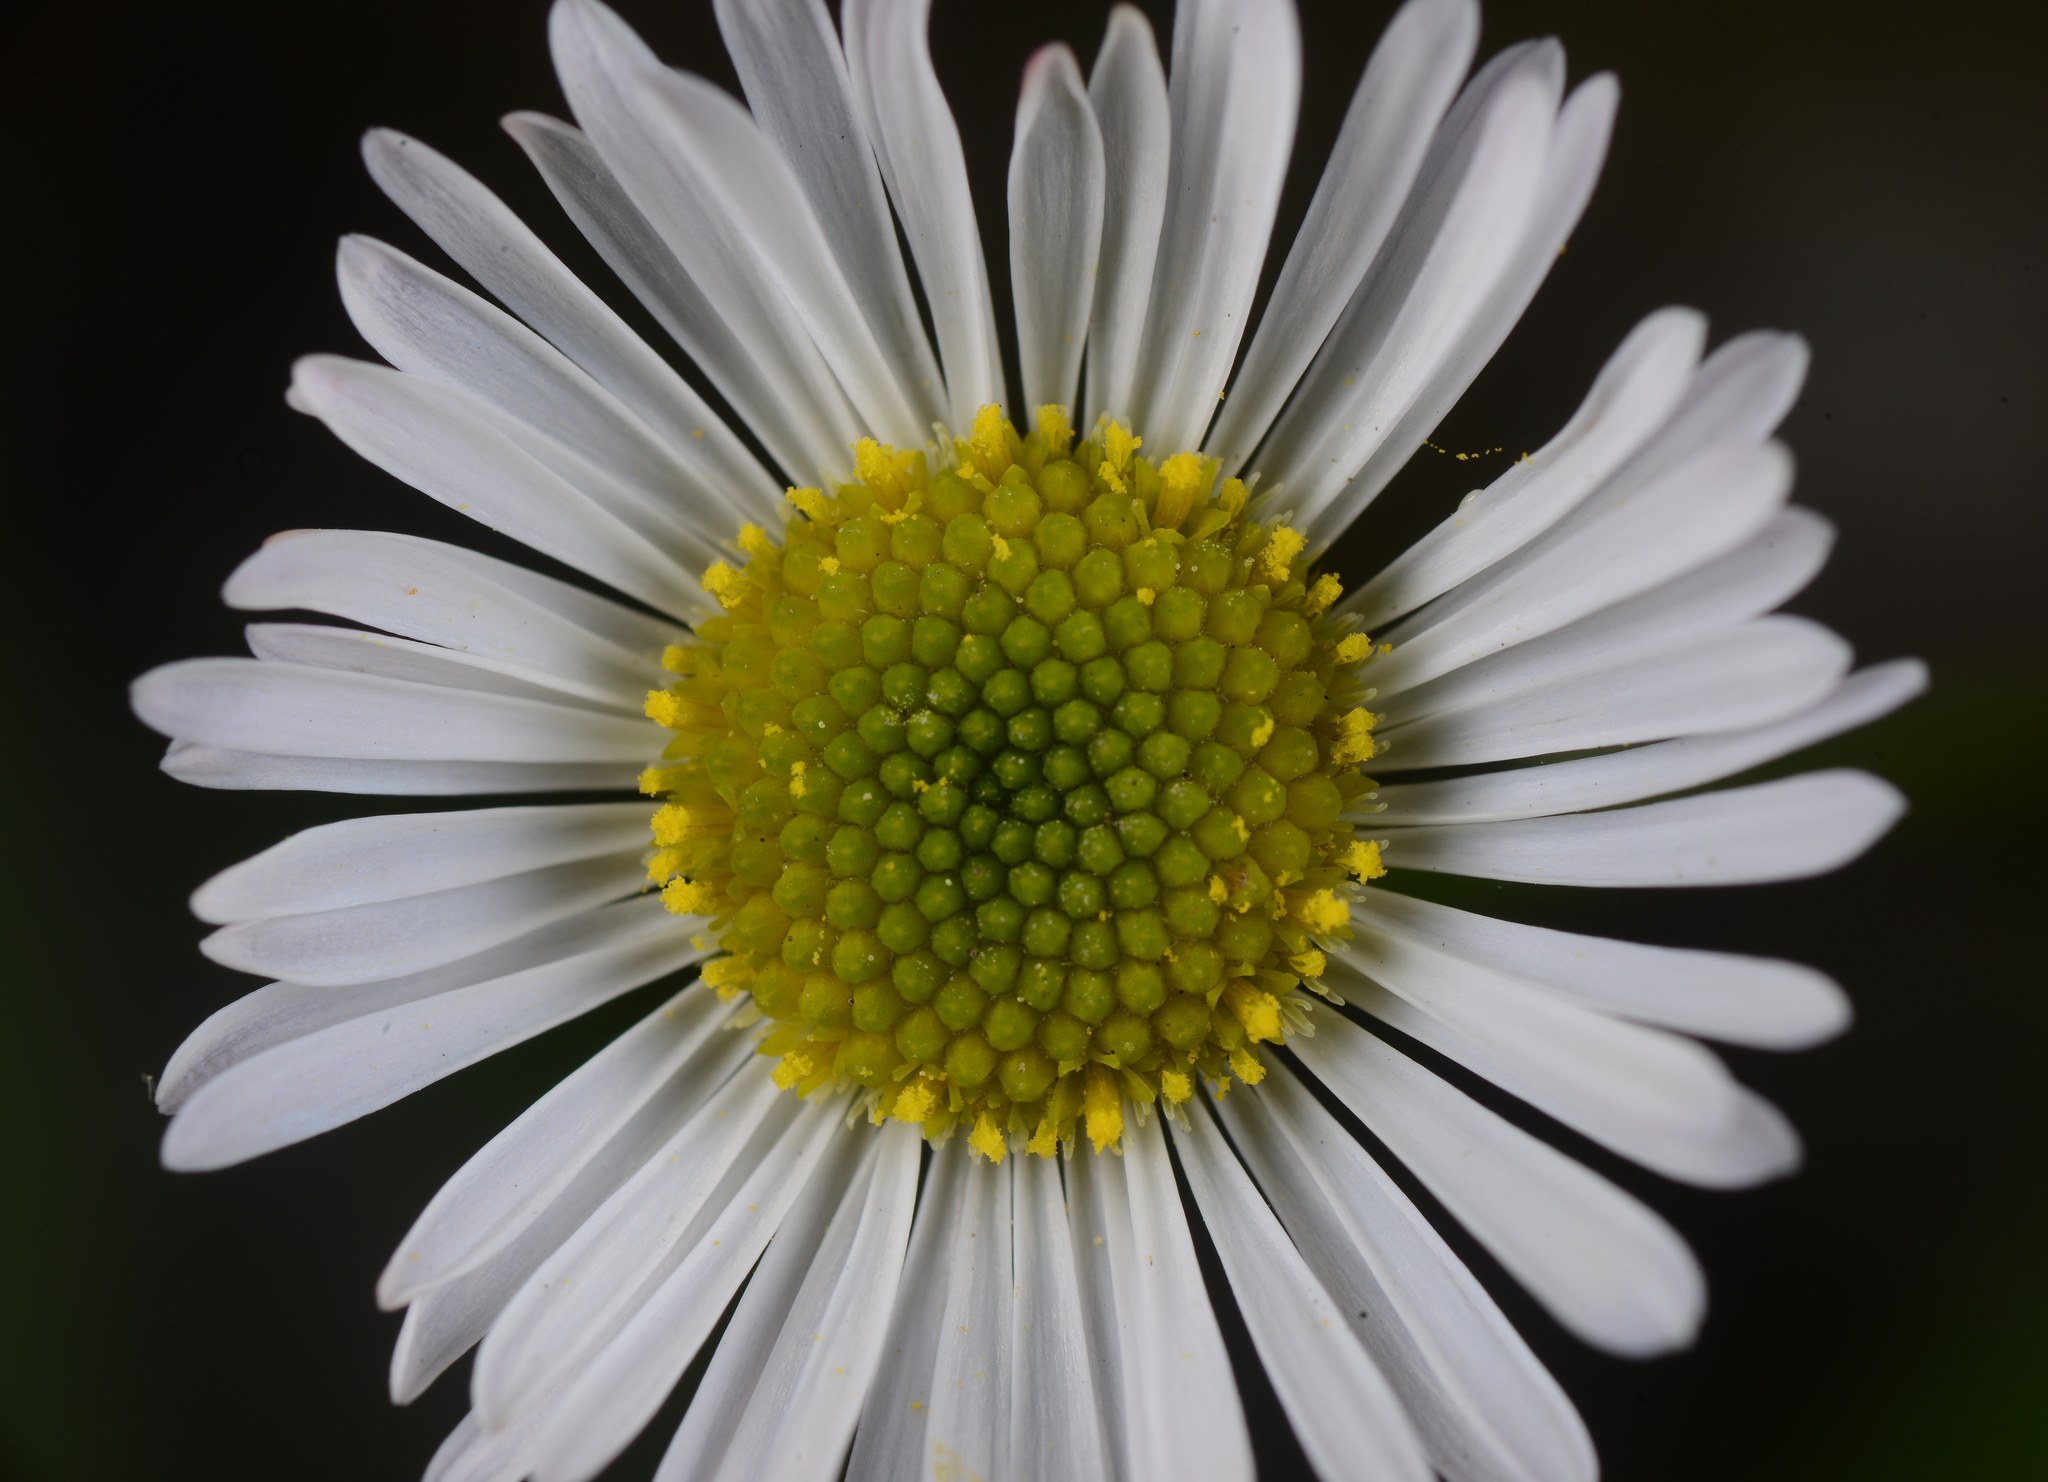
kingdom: Plantae
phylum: Tracheophyta
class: Magnoliopsida
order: Asterales
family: Asteraceae
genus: Erigeron
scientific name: Erigeron karvinskianus
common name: Mexican fleabane
